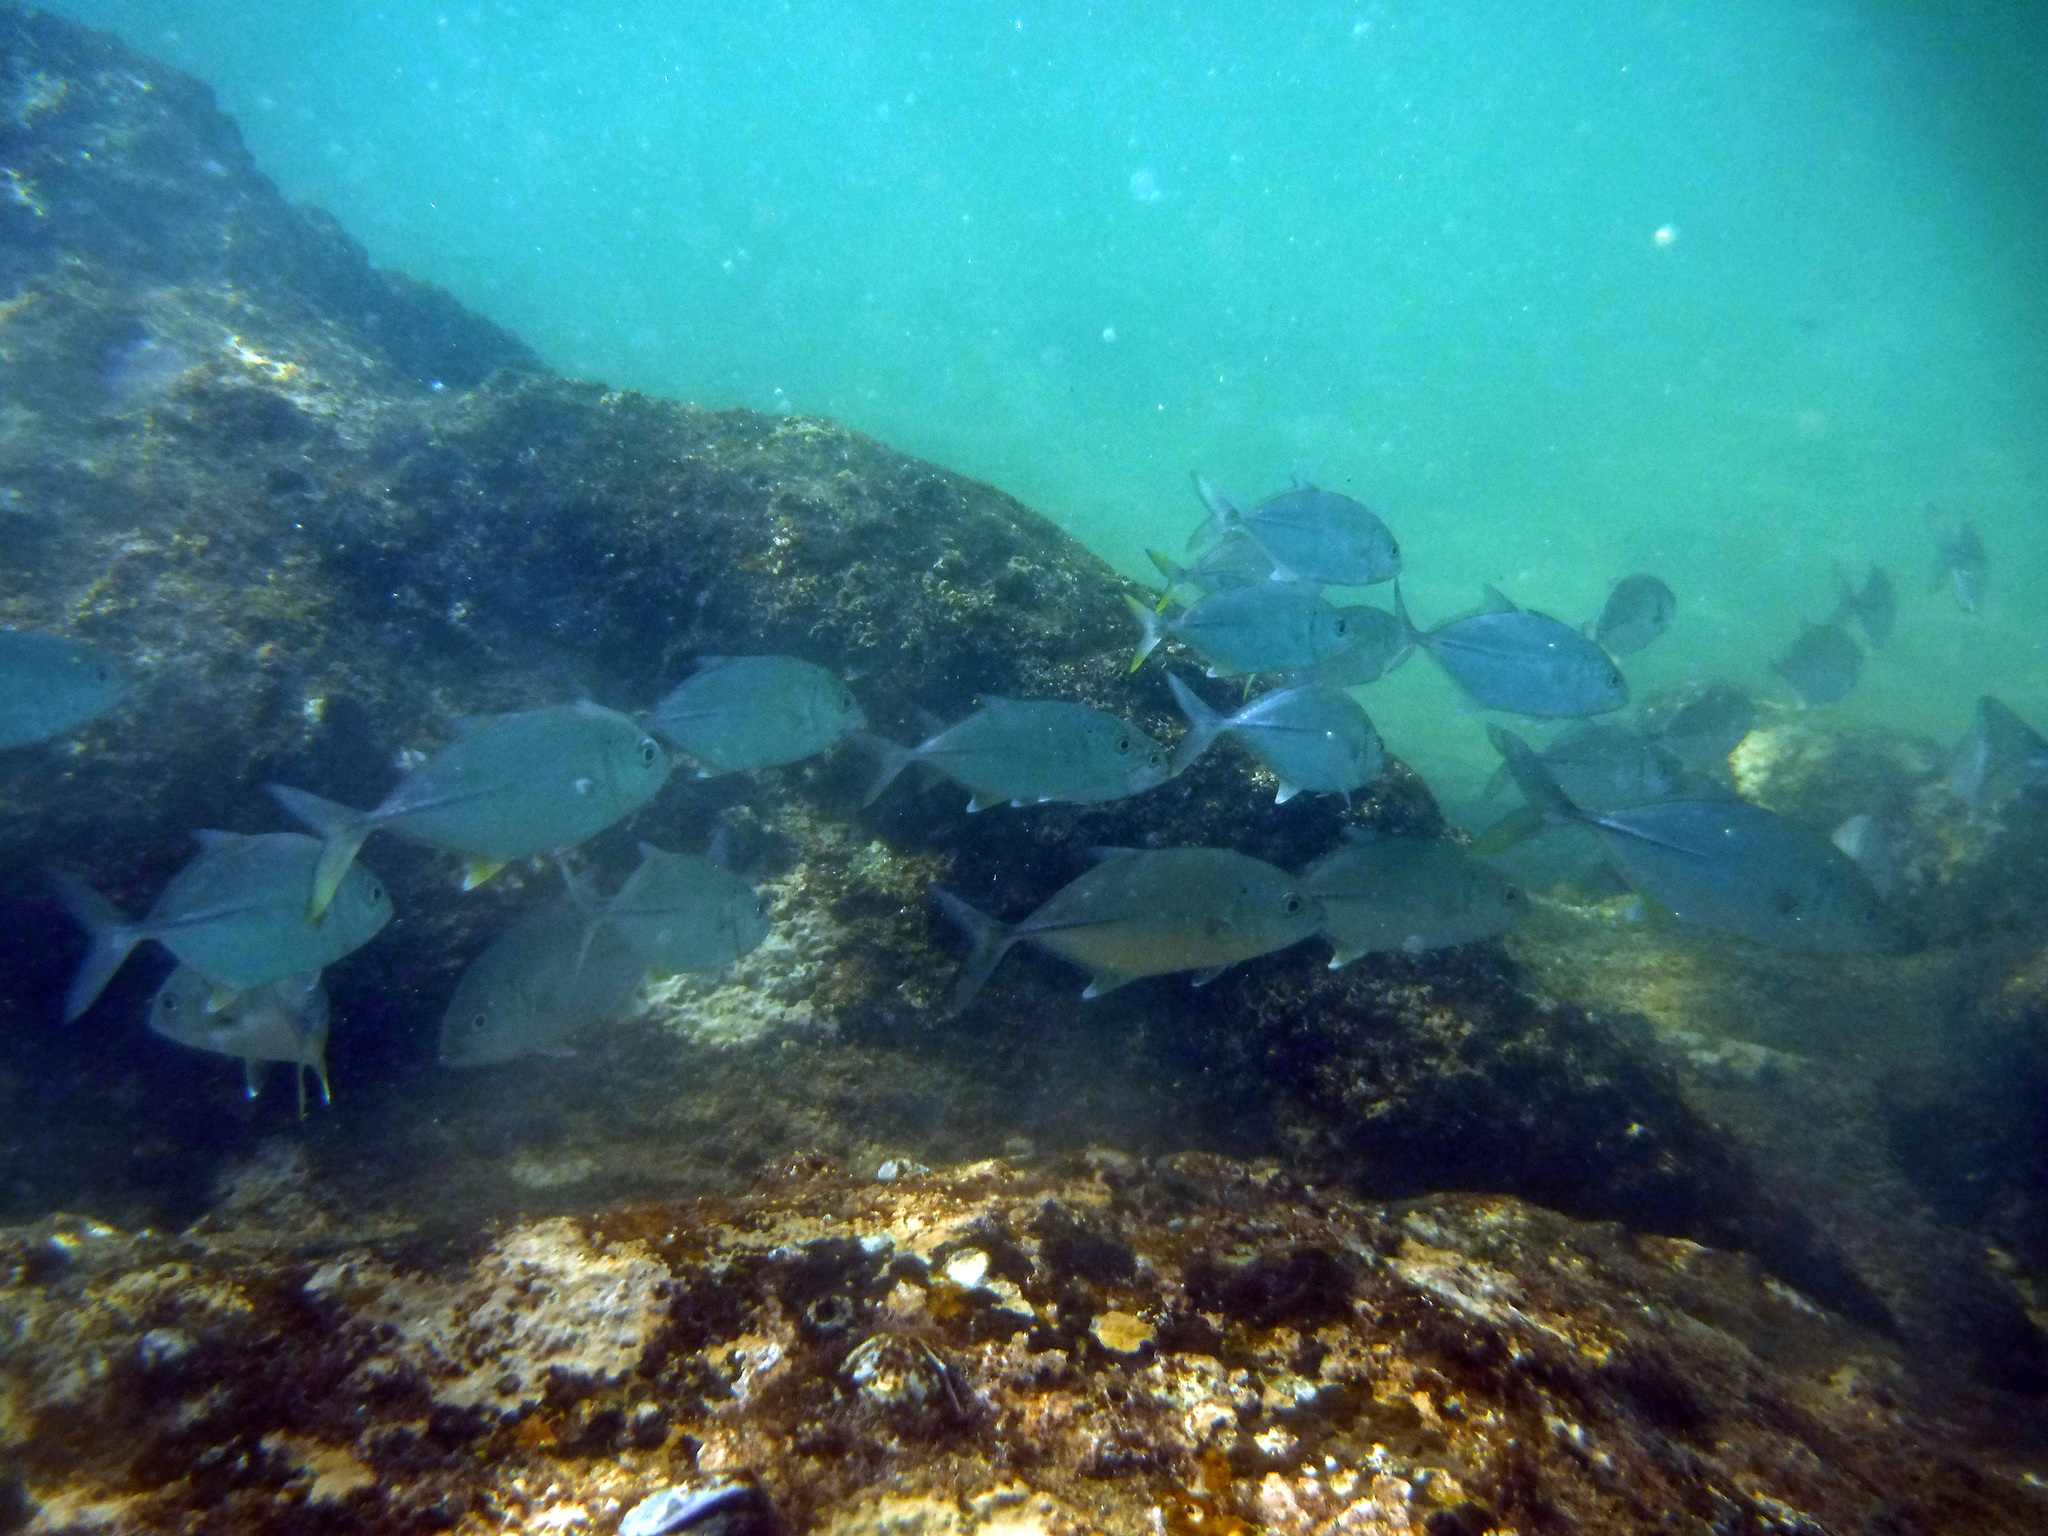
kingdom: Animalia
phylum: Chordata
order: Perciformes
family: Carangidae
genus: Caranx
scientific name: Caranx sexfasciatus
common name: Bigeye trevally
